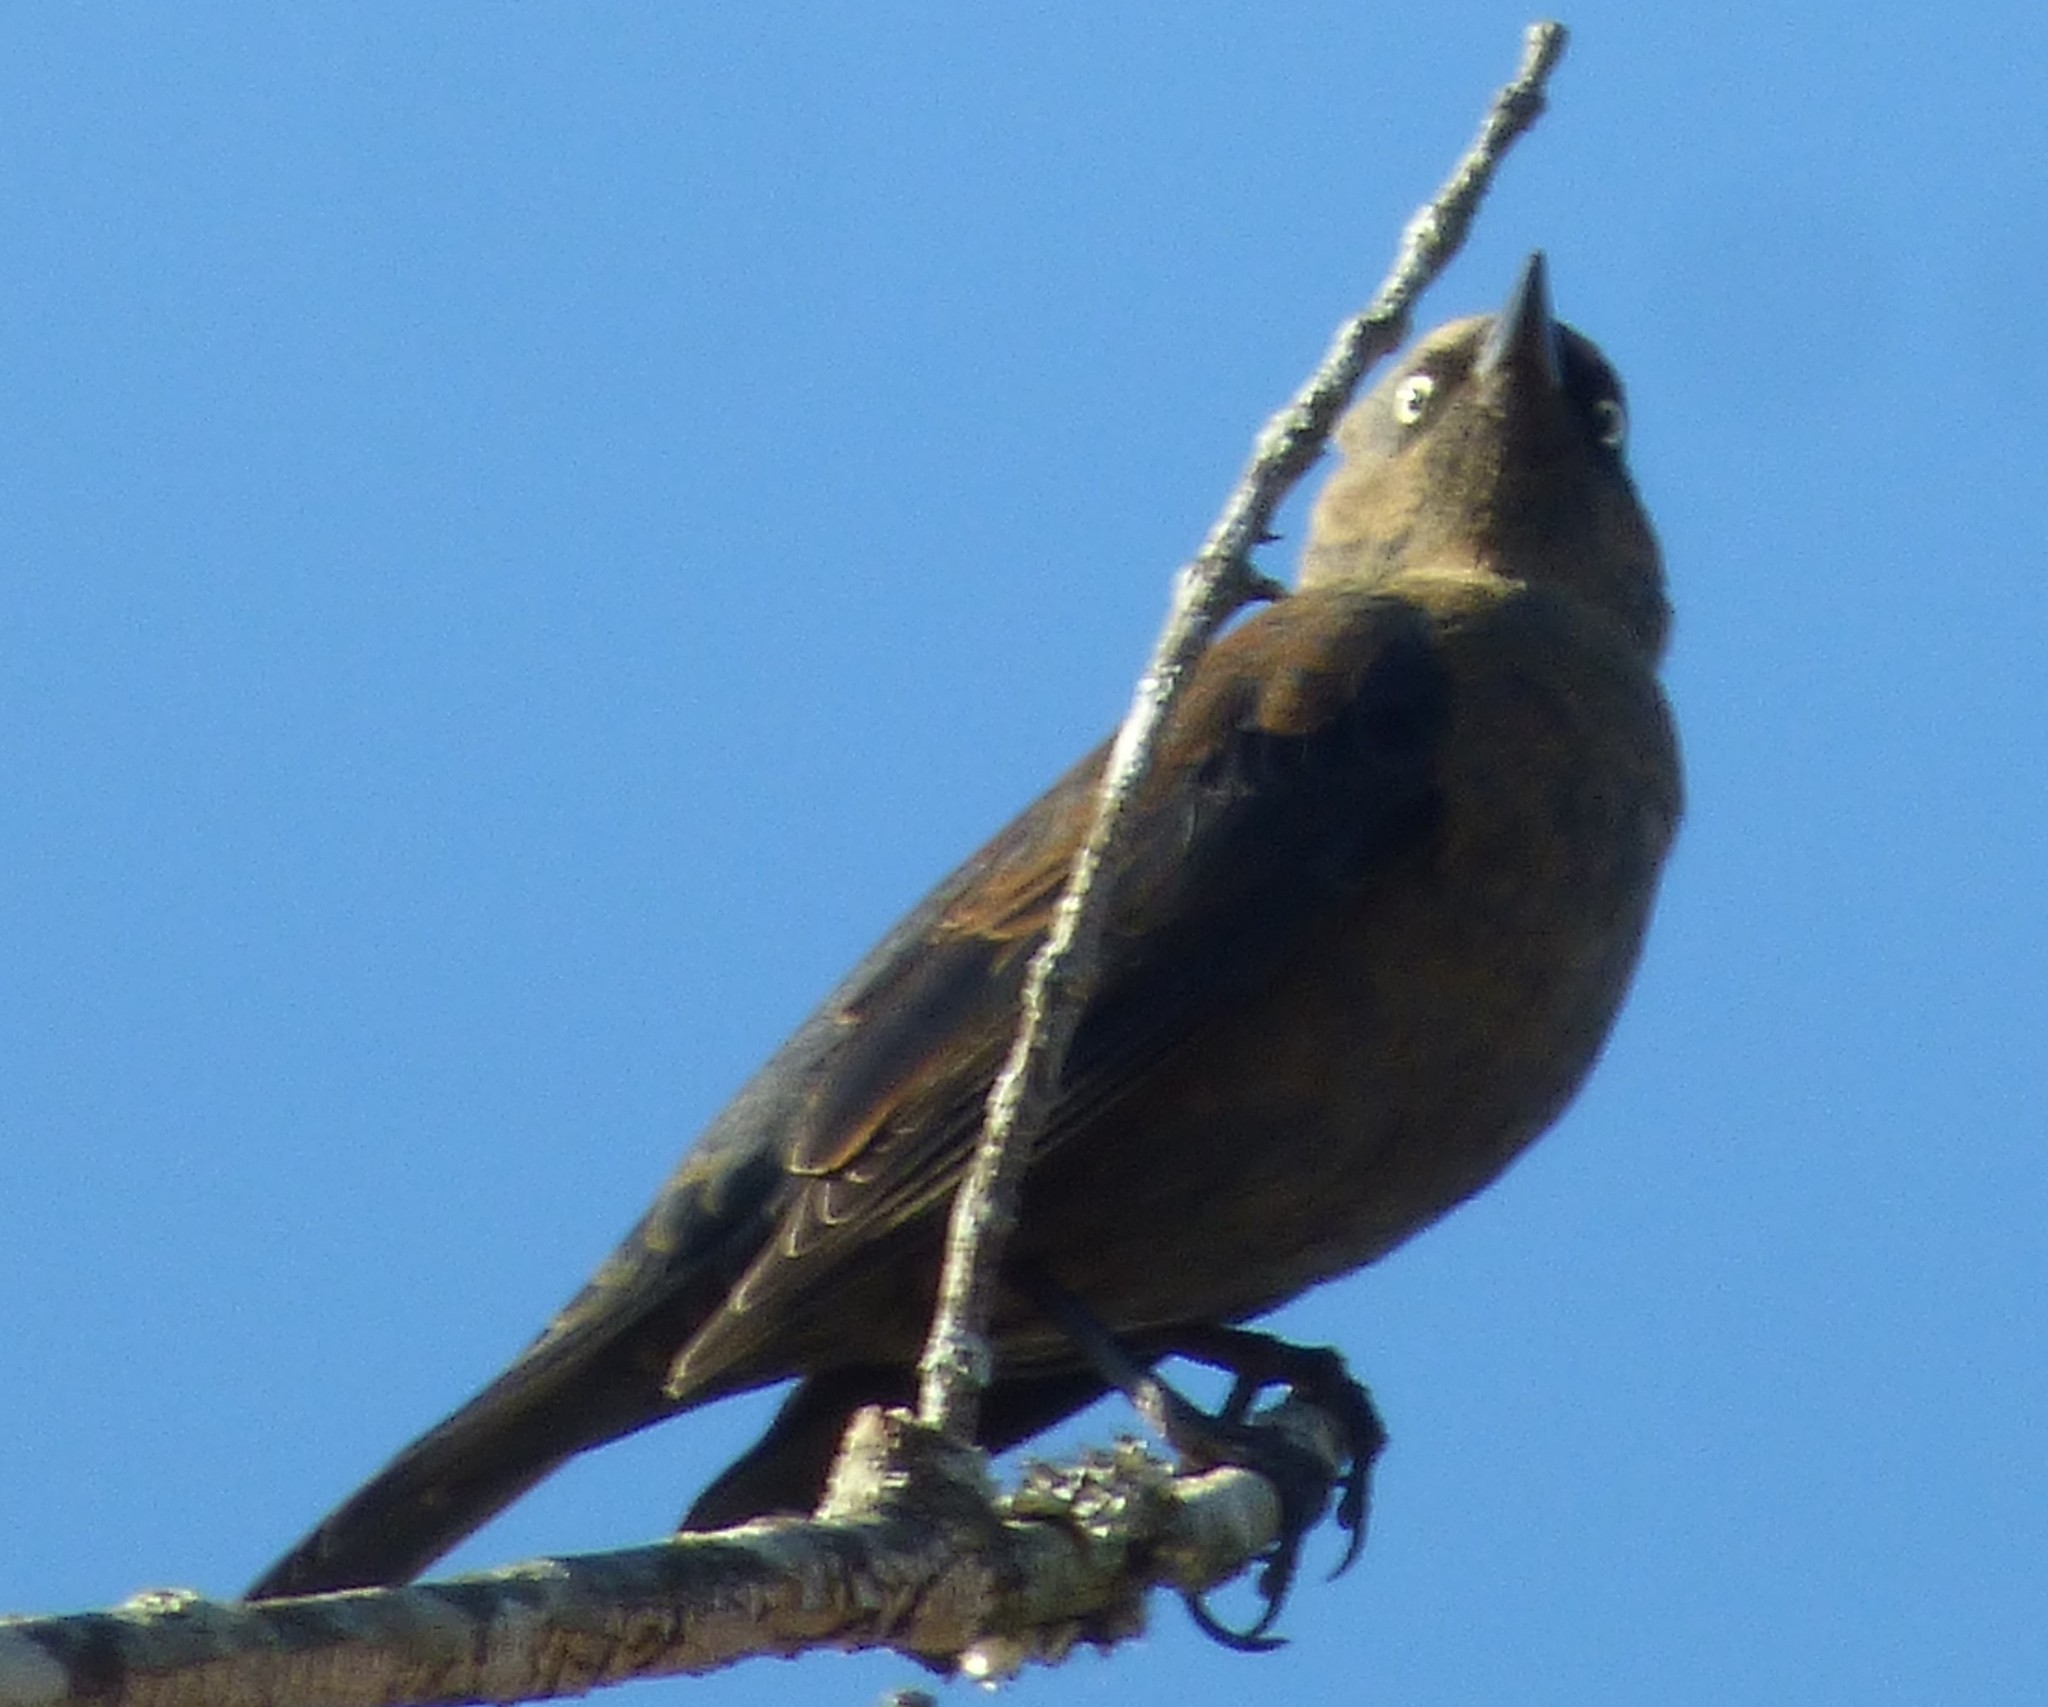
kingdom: Animalia
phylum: Chordata
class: Aves
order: Passeriformes
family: Icteridae
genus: Euphagus
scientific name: Euphagus carolinus
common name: Rusty blackbird
